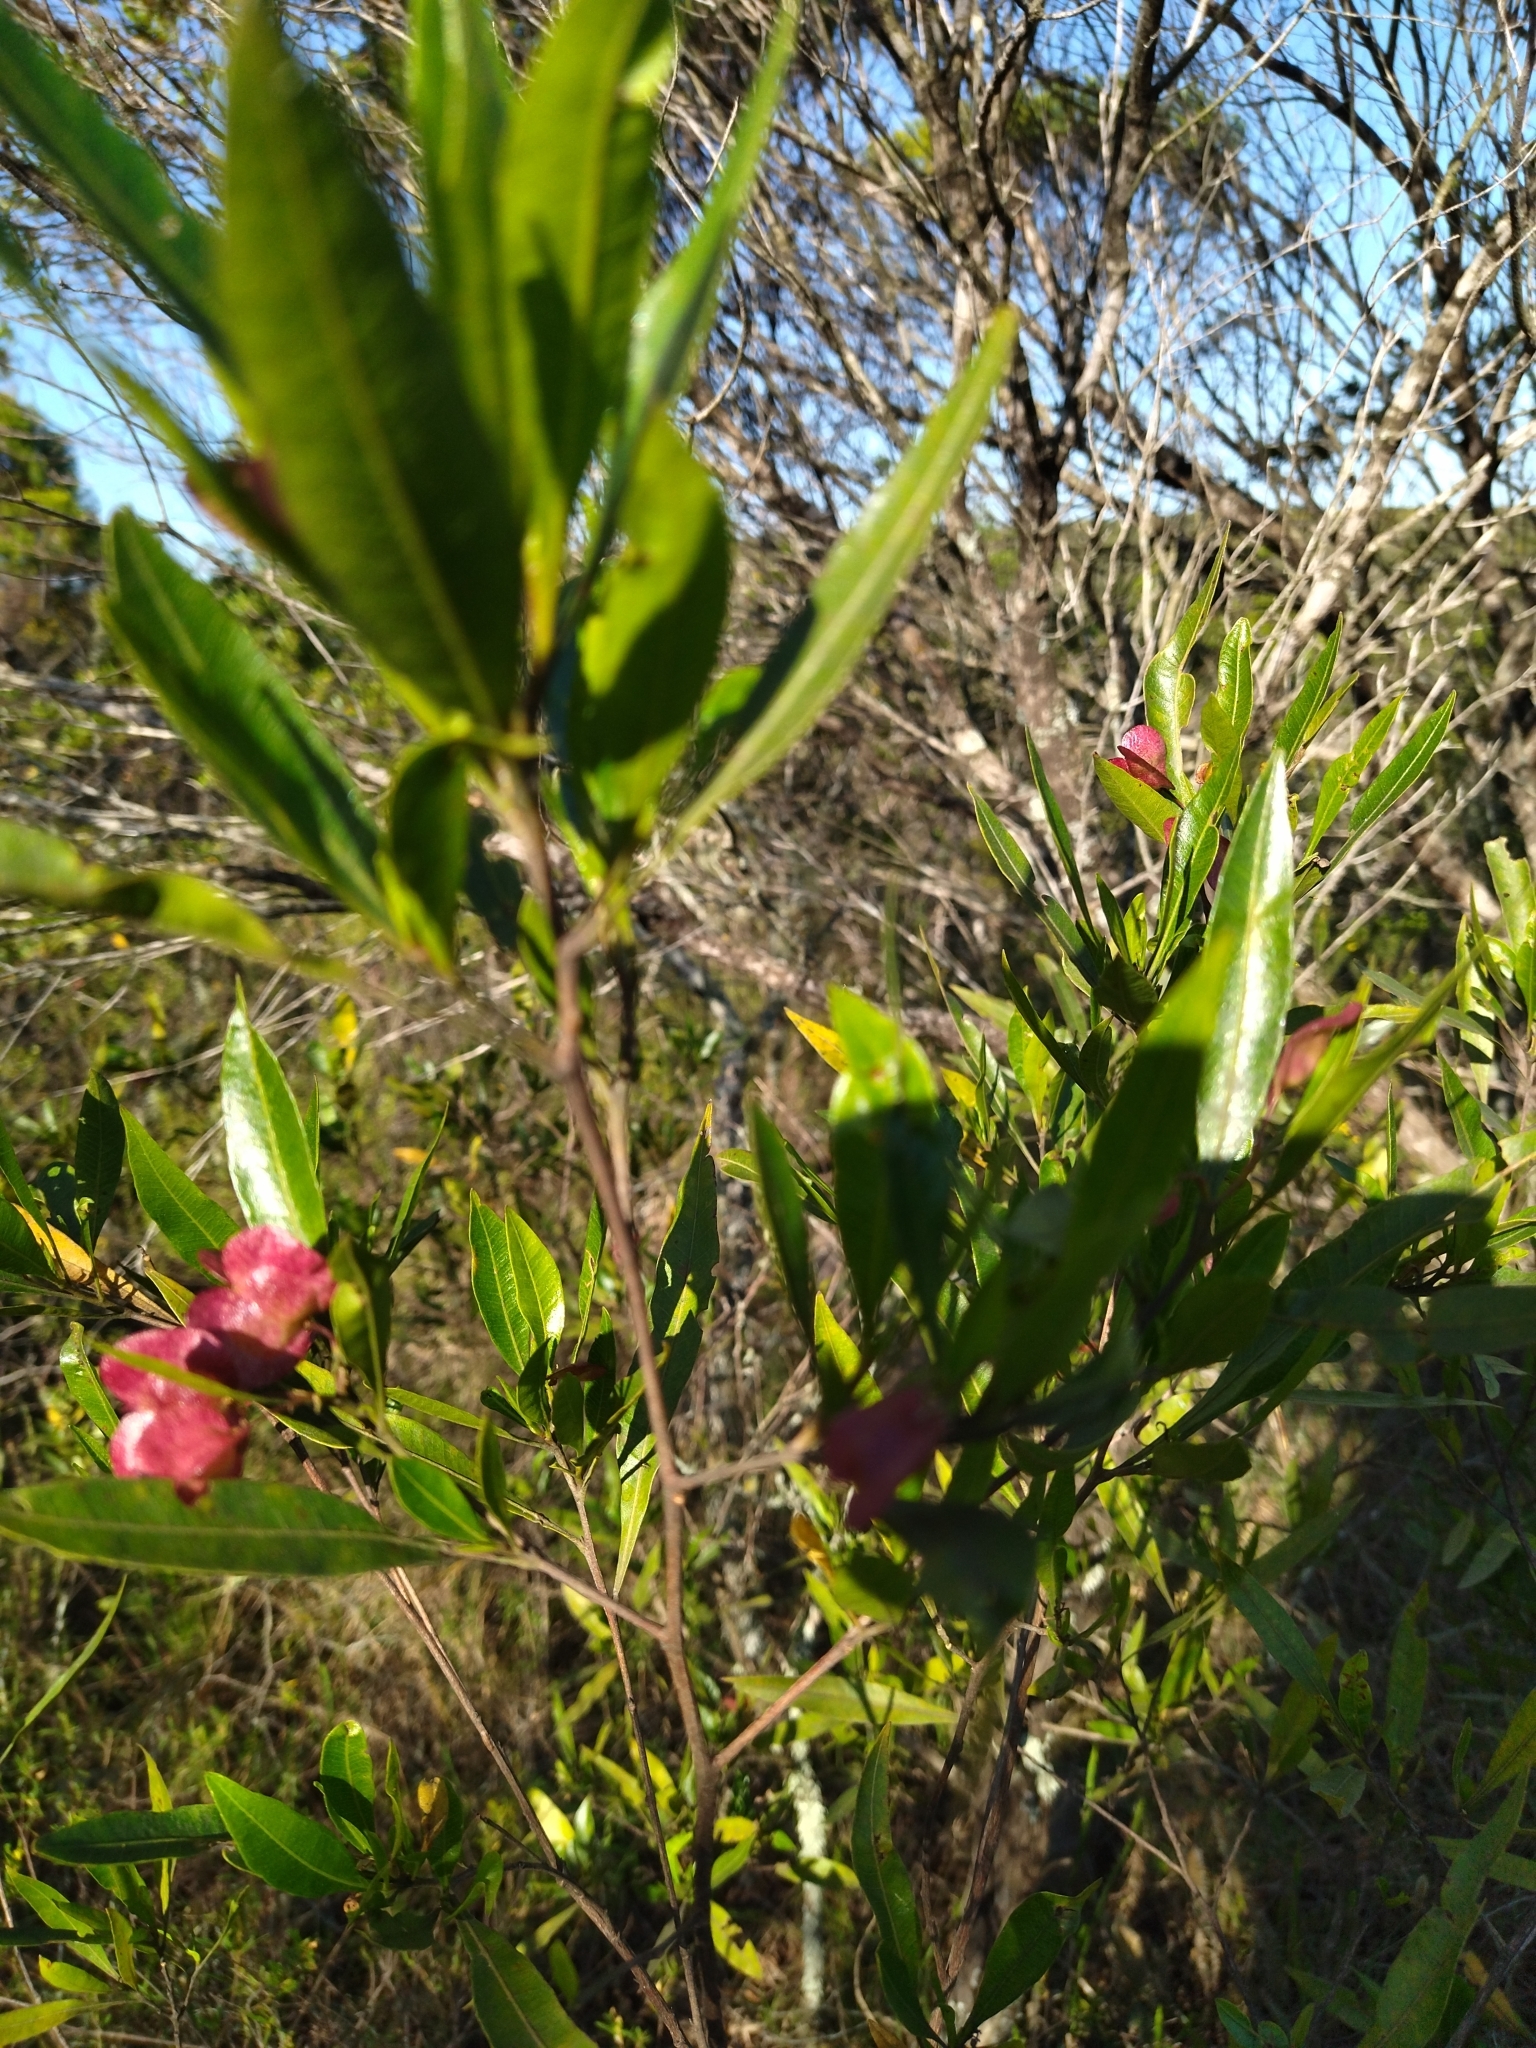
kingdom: Plantae
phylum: Tracheophyta
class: Magnoliopsida
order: Sapindales
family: Sapindaceae
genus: Dodonaea
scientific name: Dodonaea viscosa
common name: Hopbush
